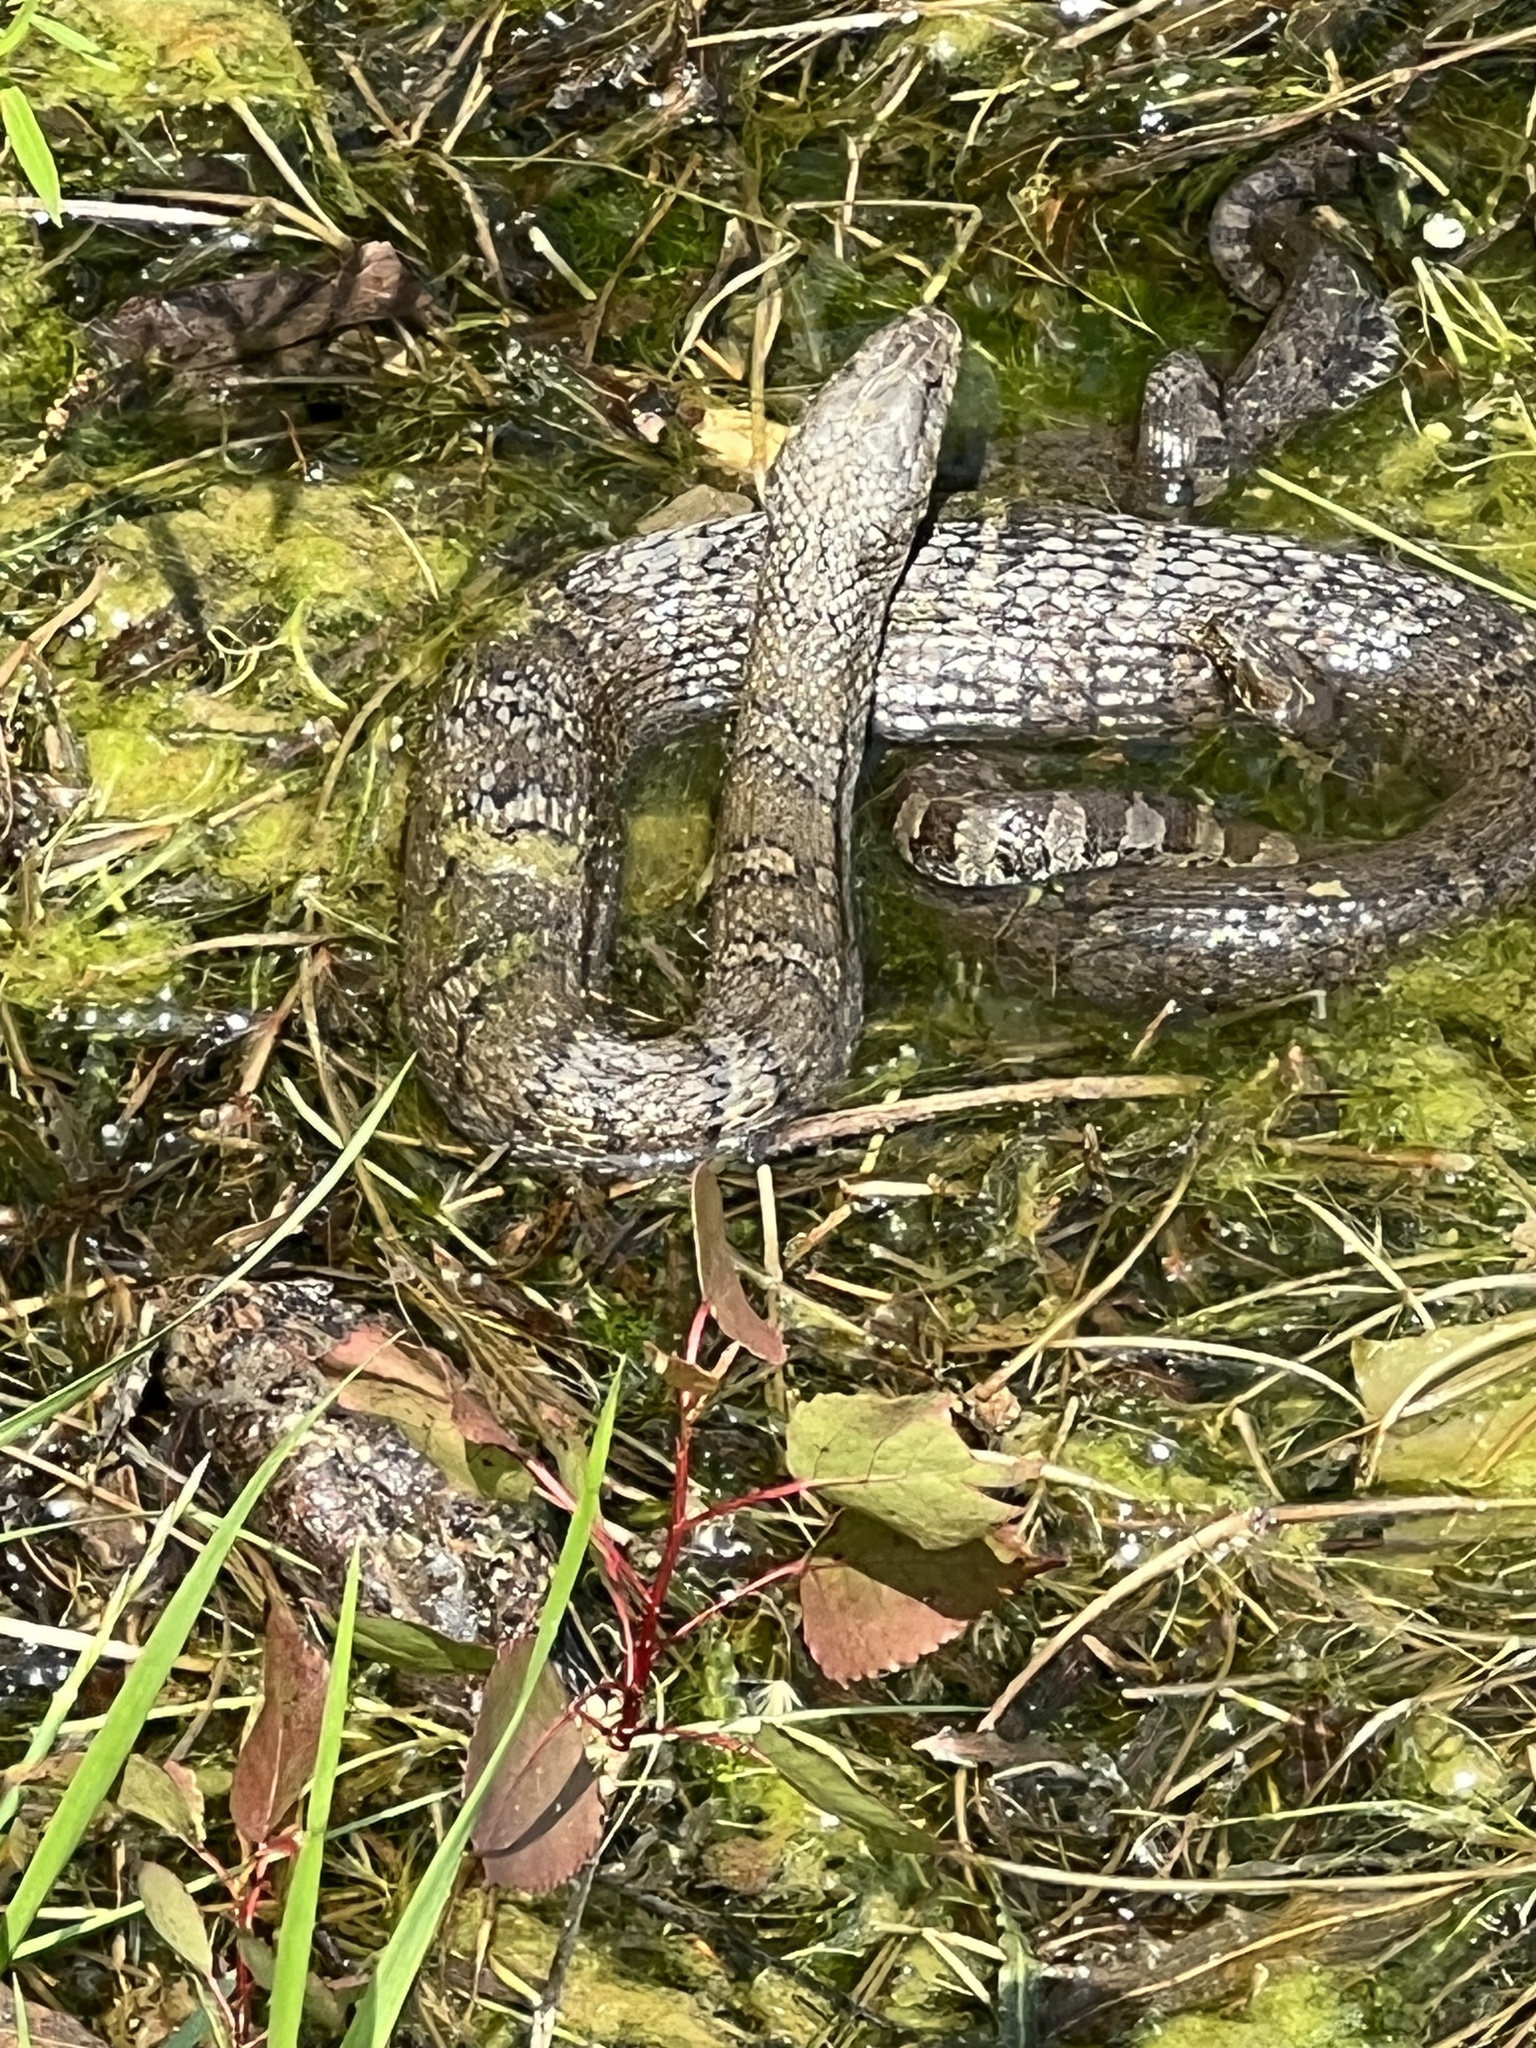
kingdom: Animalia
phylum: Chordata
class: Squamata
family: Colubridae
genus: Nerodia
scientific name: Nerodia sipedon
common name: Northern water snake
